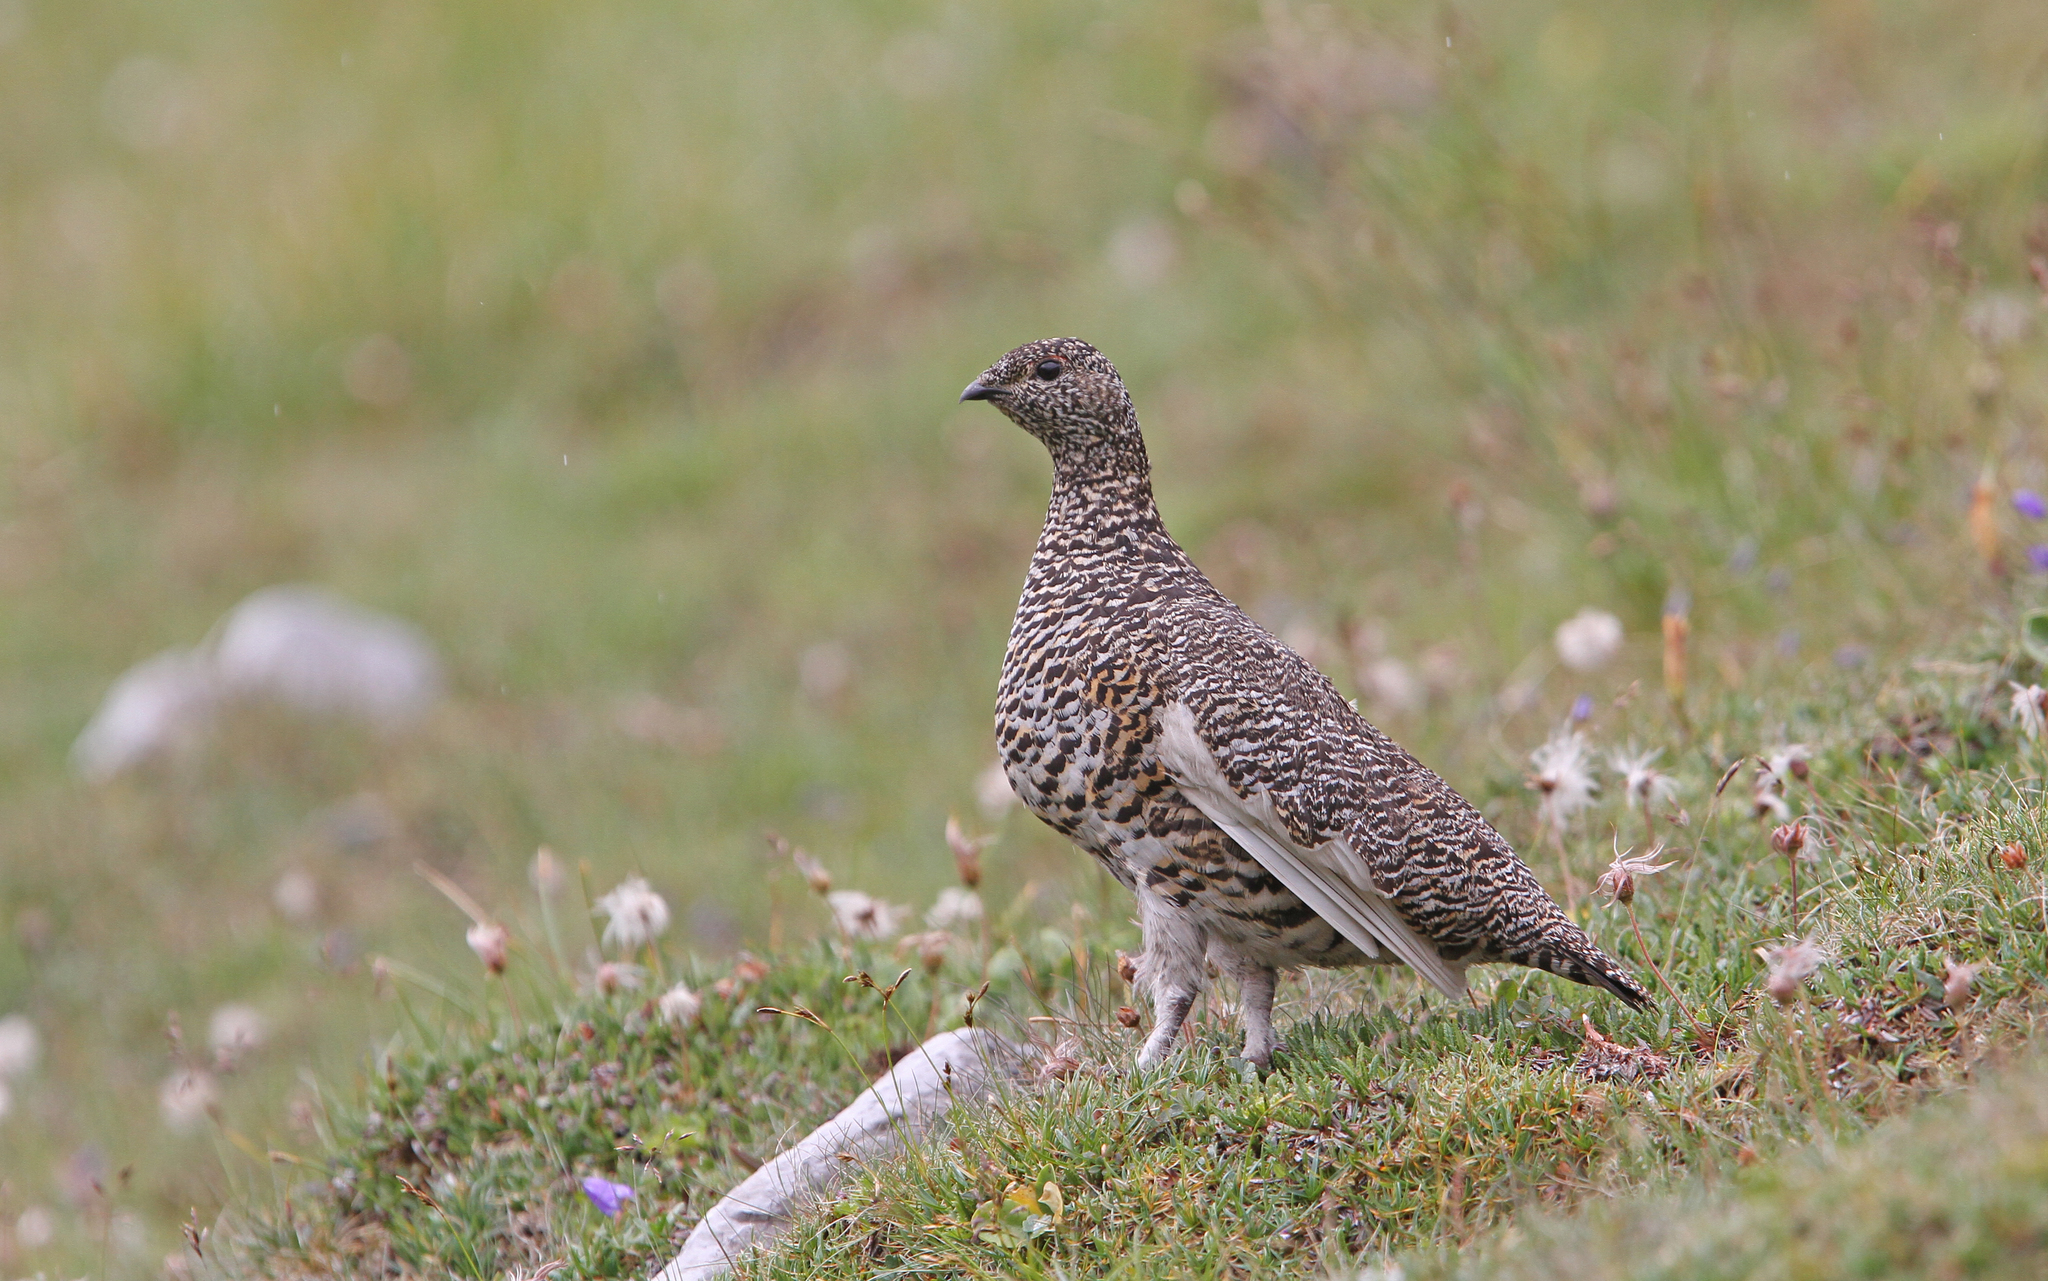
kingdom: Animalia
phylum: Chordata
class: Aves
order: Galliformes
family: Phasianidae
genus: Lagopus
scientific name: Lagopus muta
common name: Rock ptarmigan
